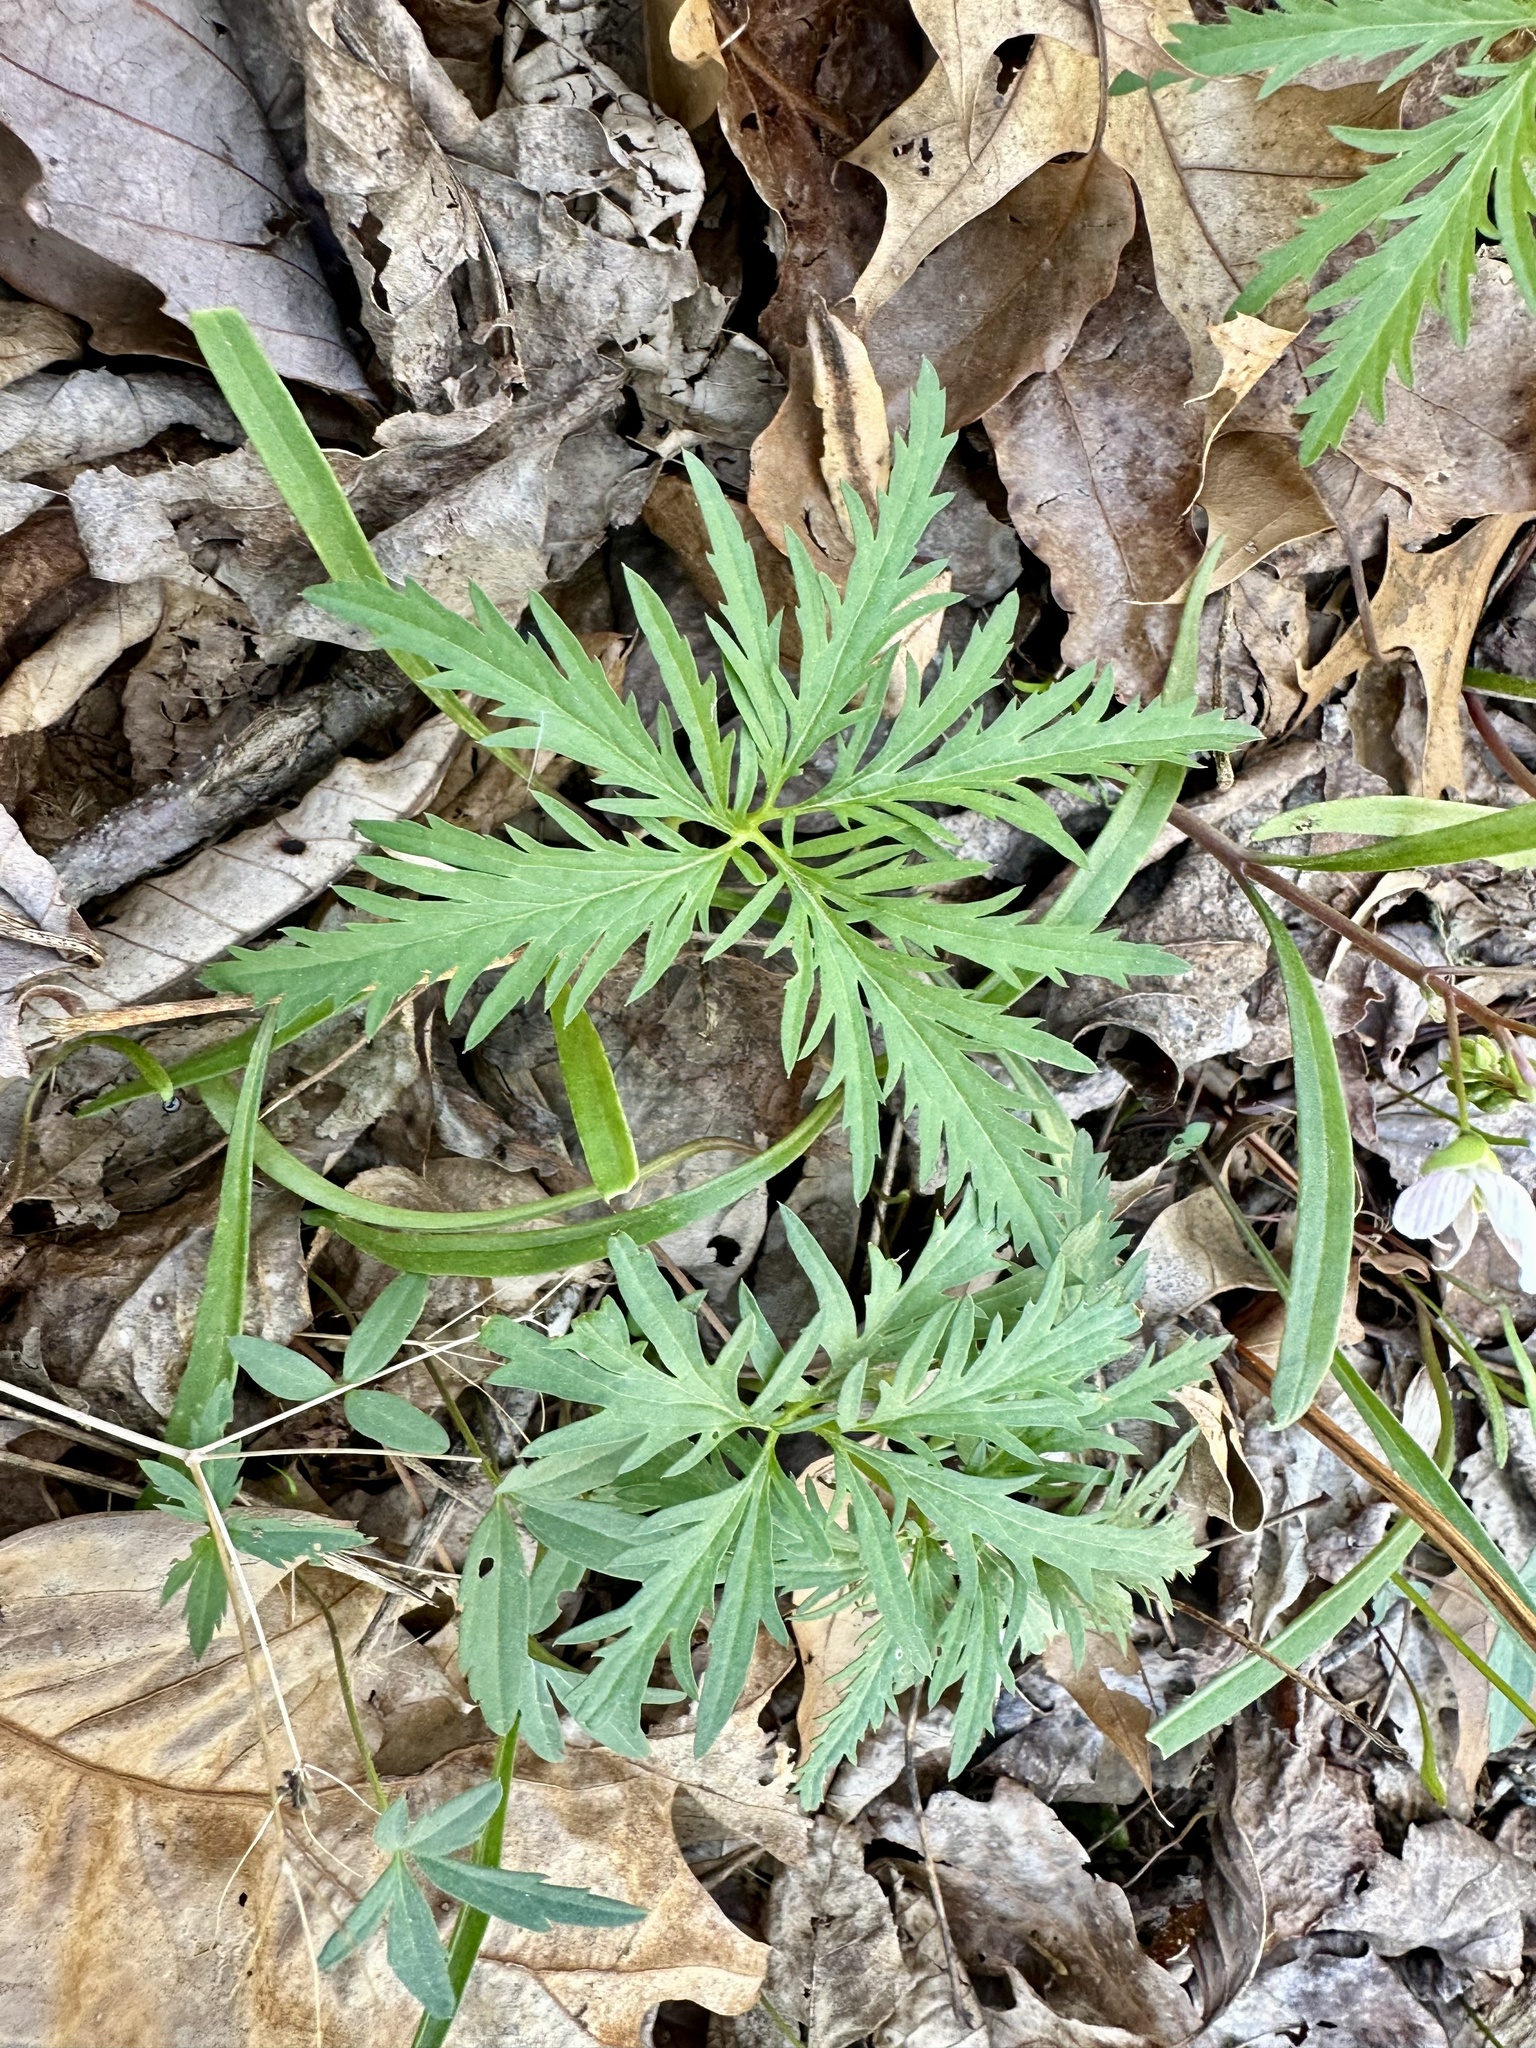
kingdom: Plantae
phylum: Tracheophyta
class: Magnoliopsida
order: Brassicales
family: Brassicaceae
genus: Cardamine
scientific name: Cardamine concatenata
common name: Cut-leaf toothcup
